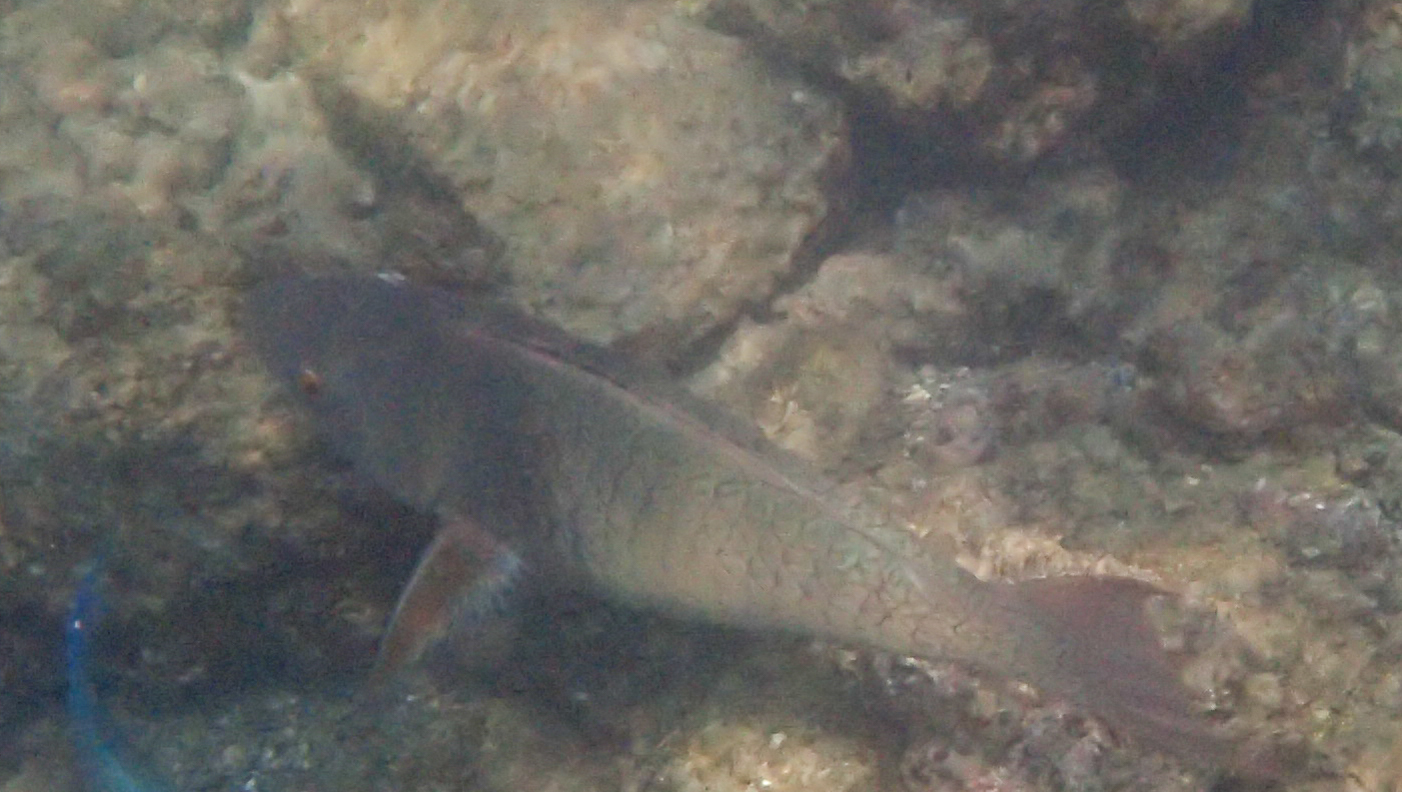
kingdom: Animalia
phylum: Chordata
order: Perciformes
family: Scaridae
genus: Scarus
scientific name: Scarus rubroviolaceus
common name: Ember parrotfish
